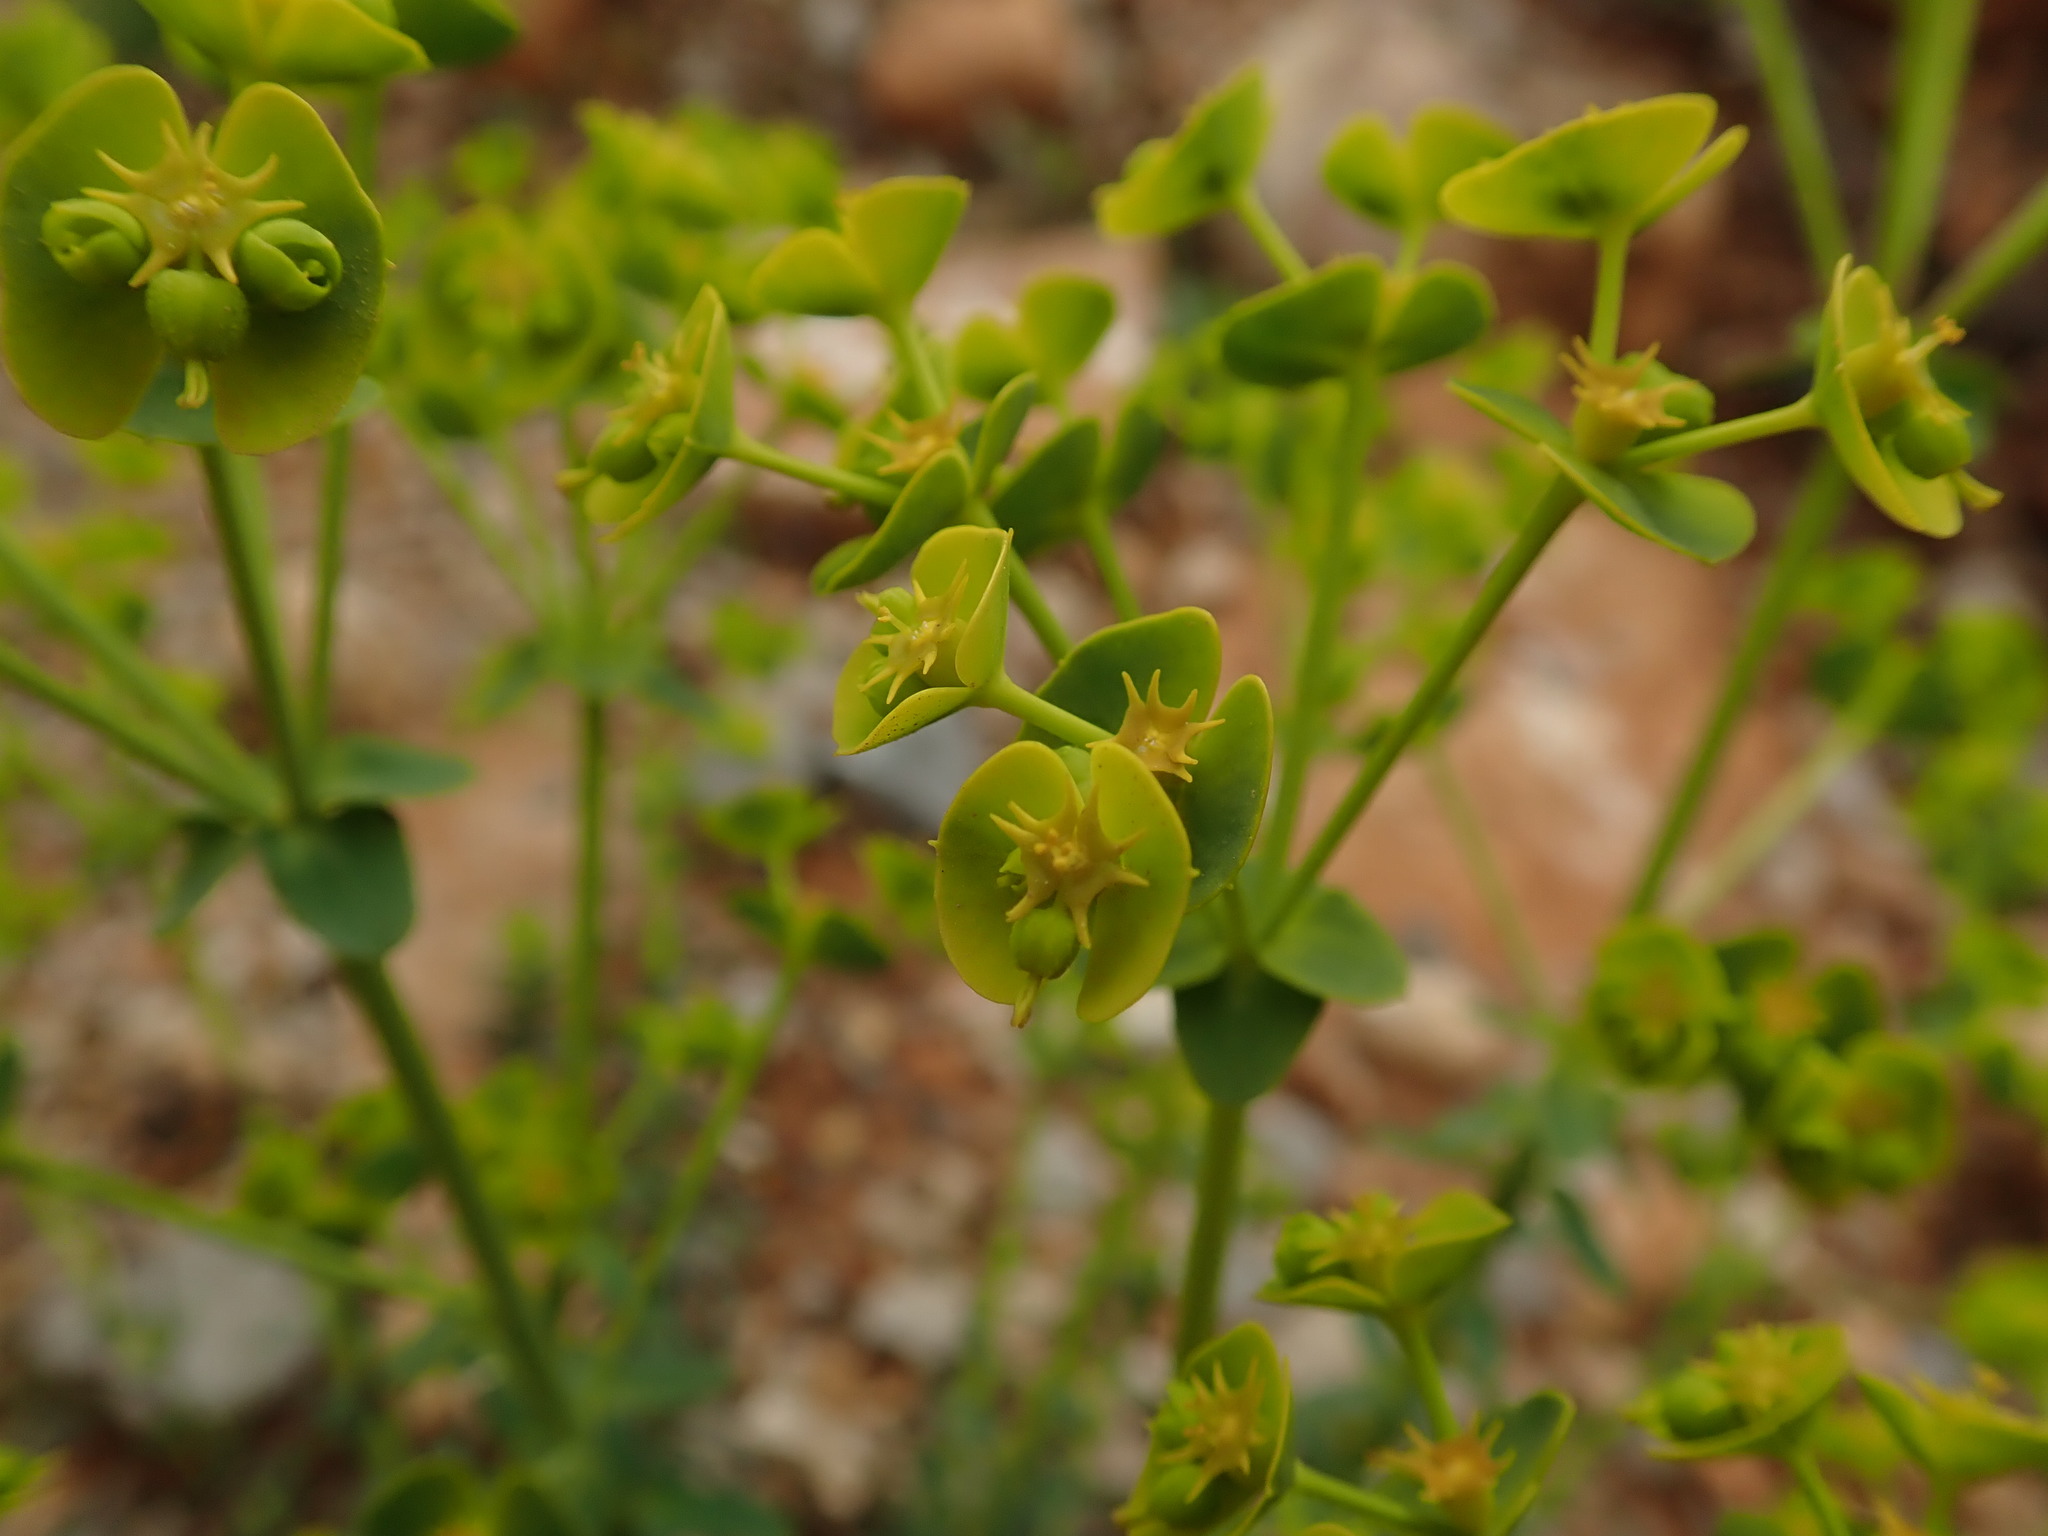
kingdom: Plantae
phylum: Tracheophyta
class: Magnoliopsida
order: Malpighiales
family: Euphorbiaceae
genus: Euphorbia
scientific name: Euphorbia segetalis
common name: Corn spurge
